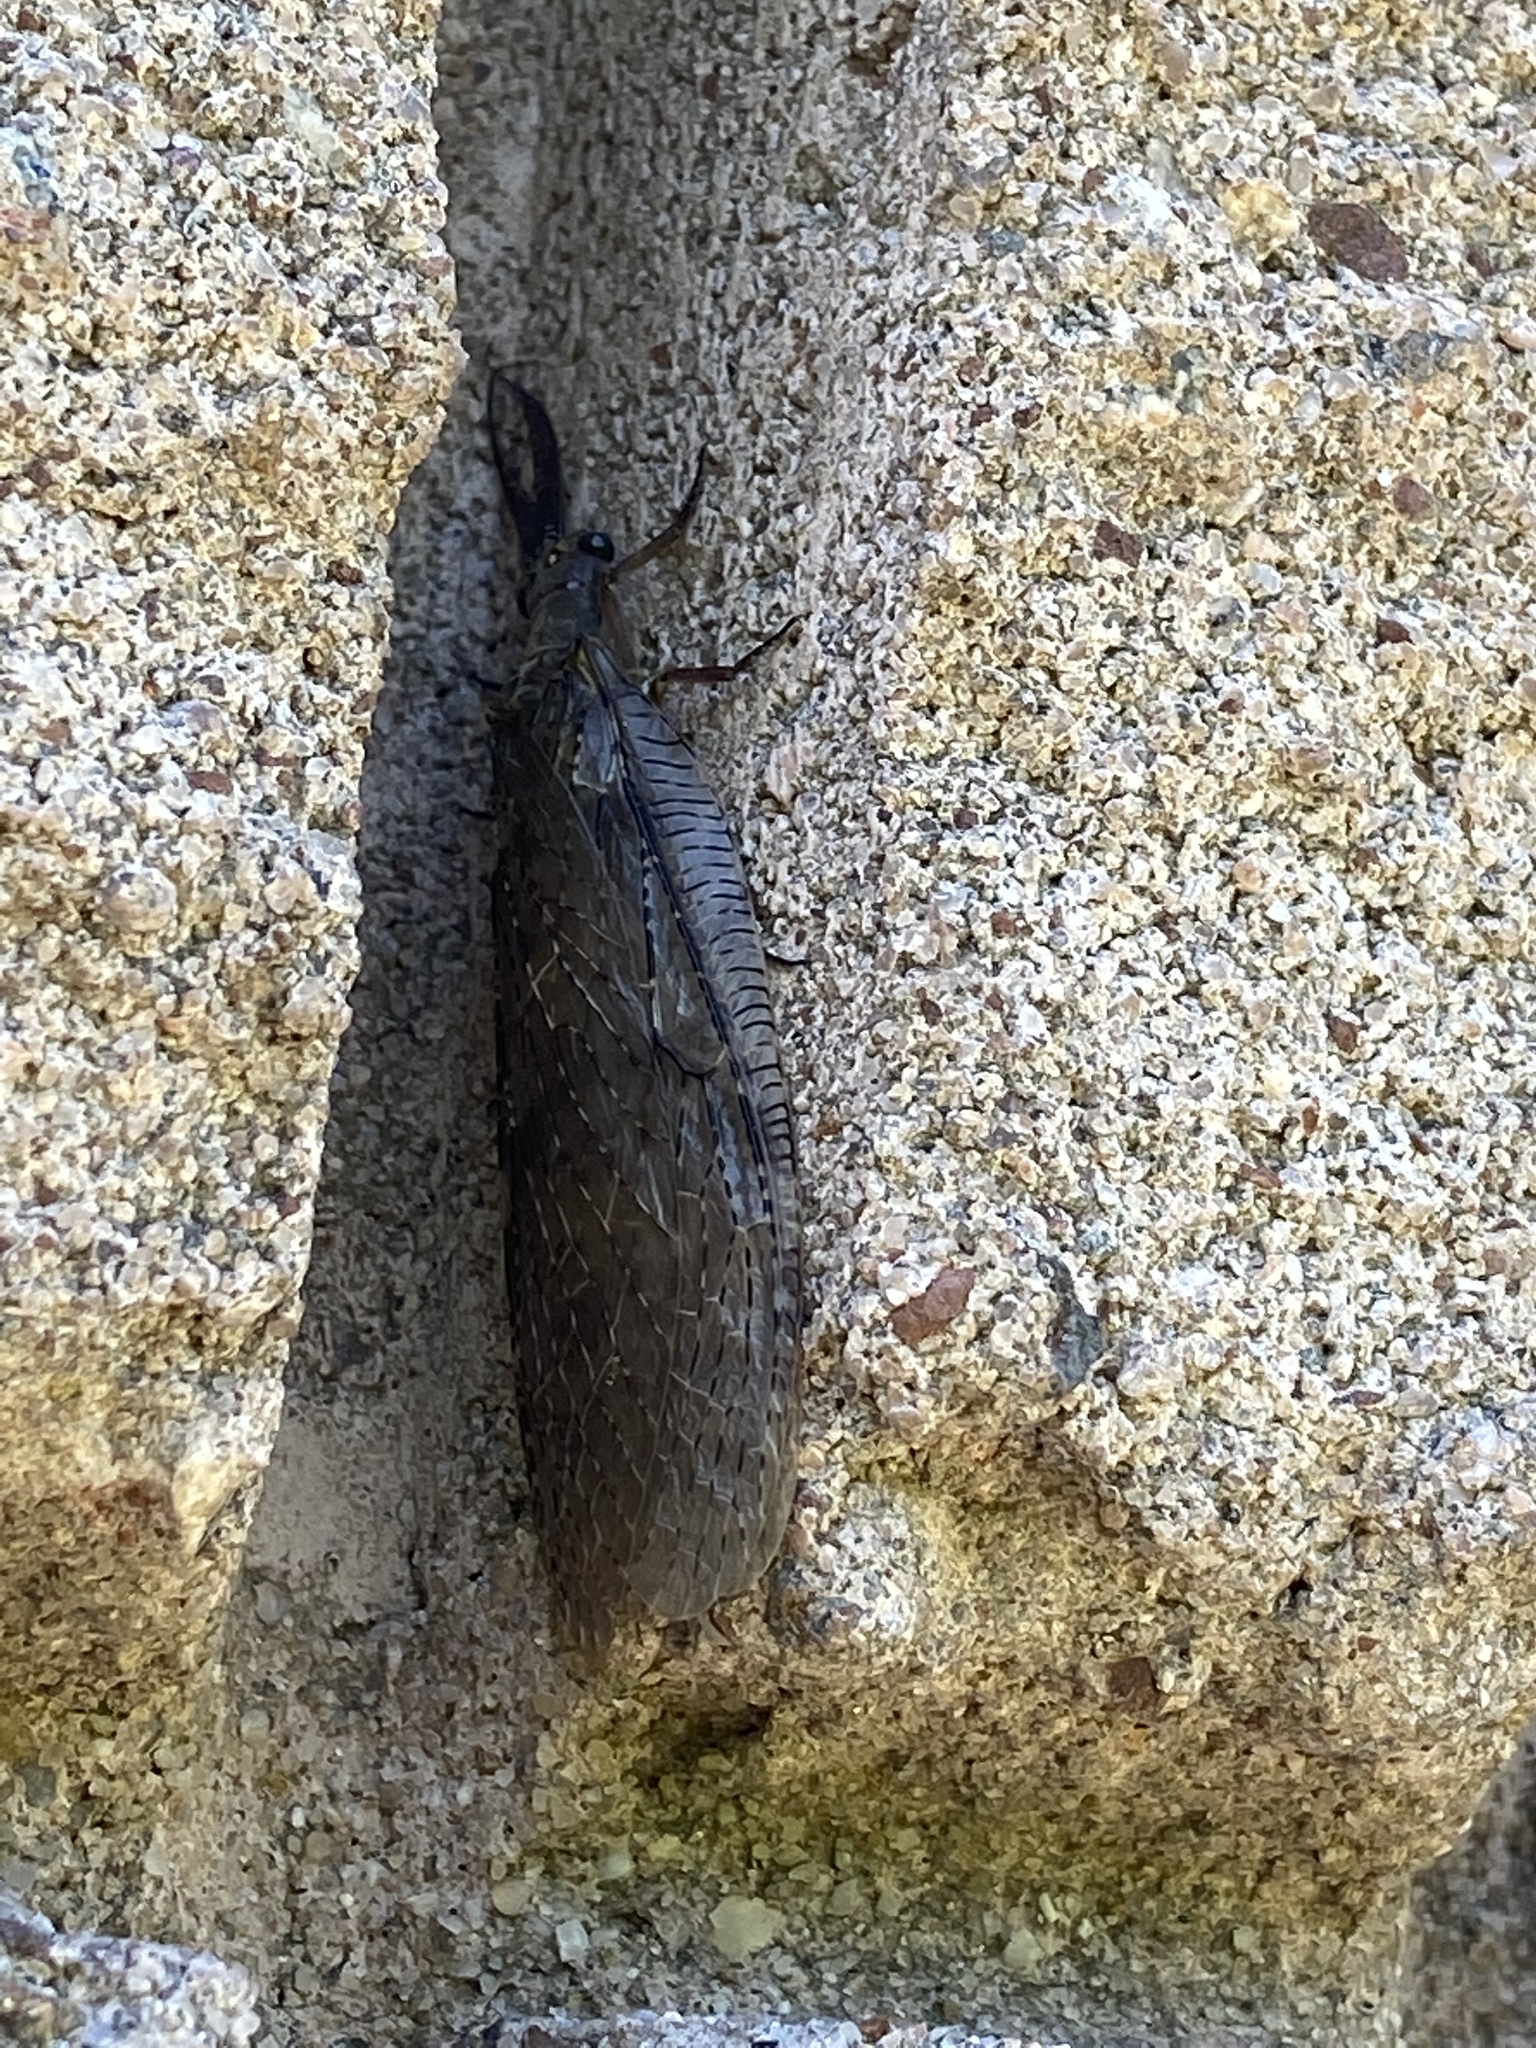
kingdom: Animalia
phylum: Arthropoda
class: Insecta
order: Megaloptera
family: Corydalidae
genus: Chauliodes
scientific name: Chauliodes pectinicornis
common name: Summer fishfly
